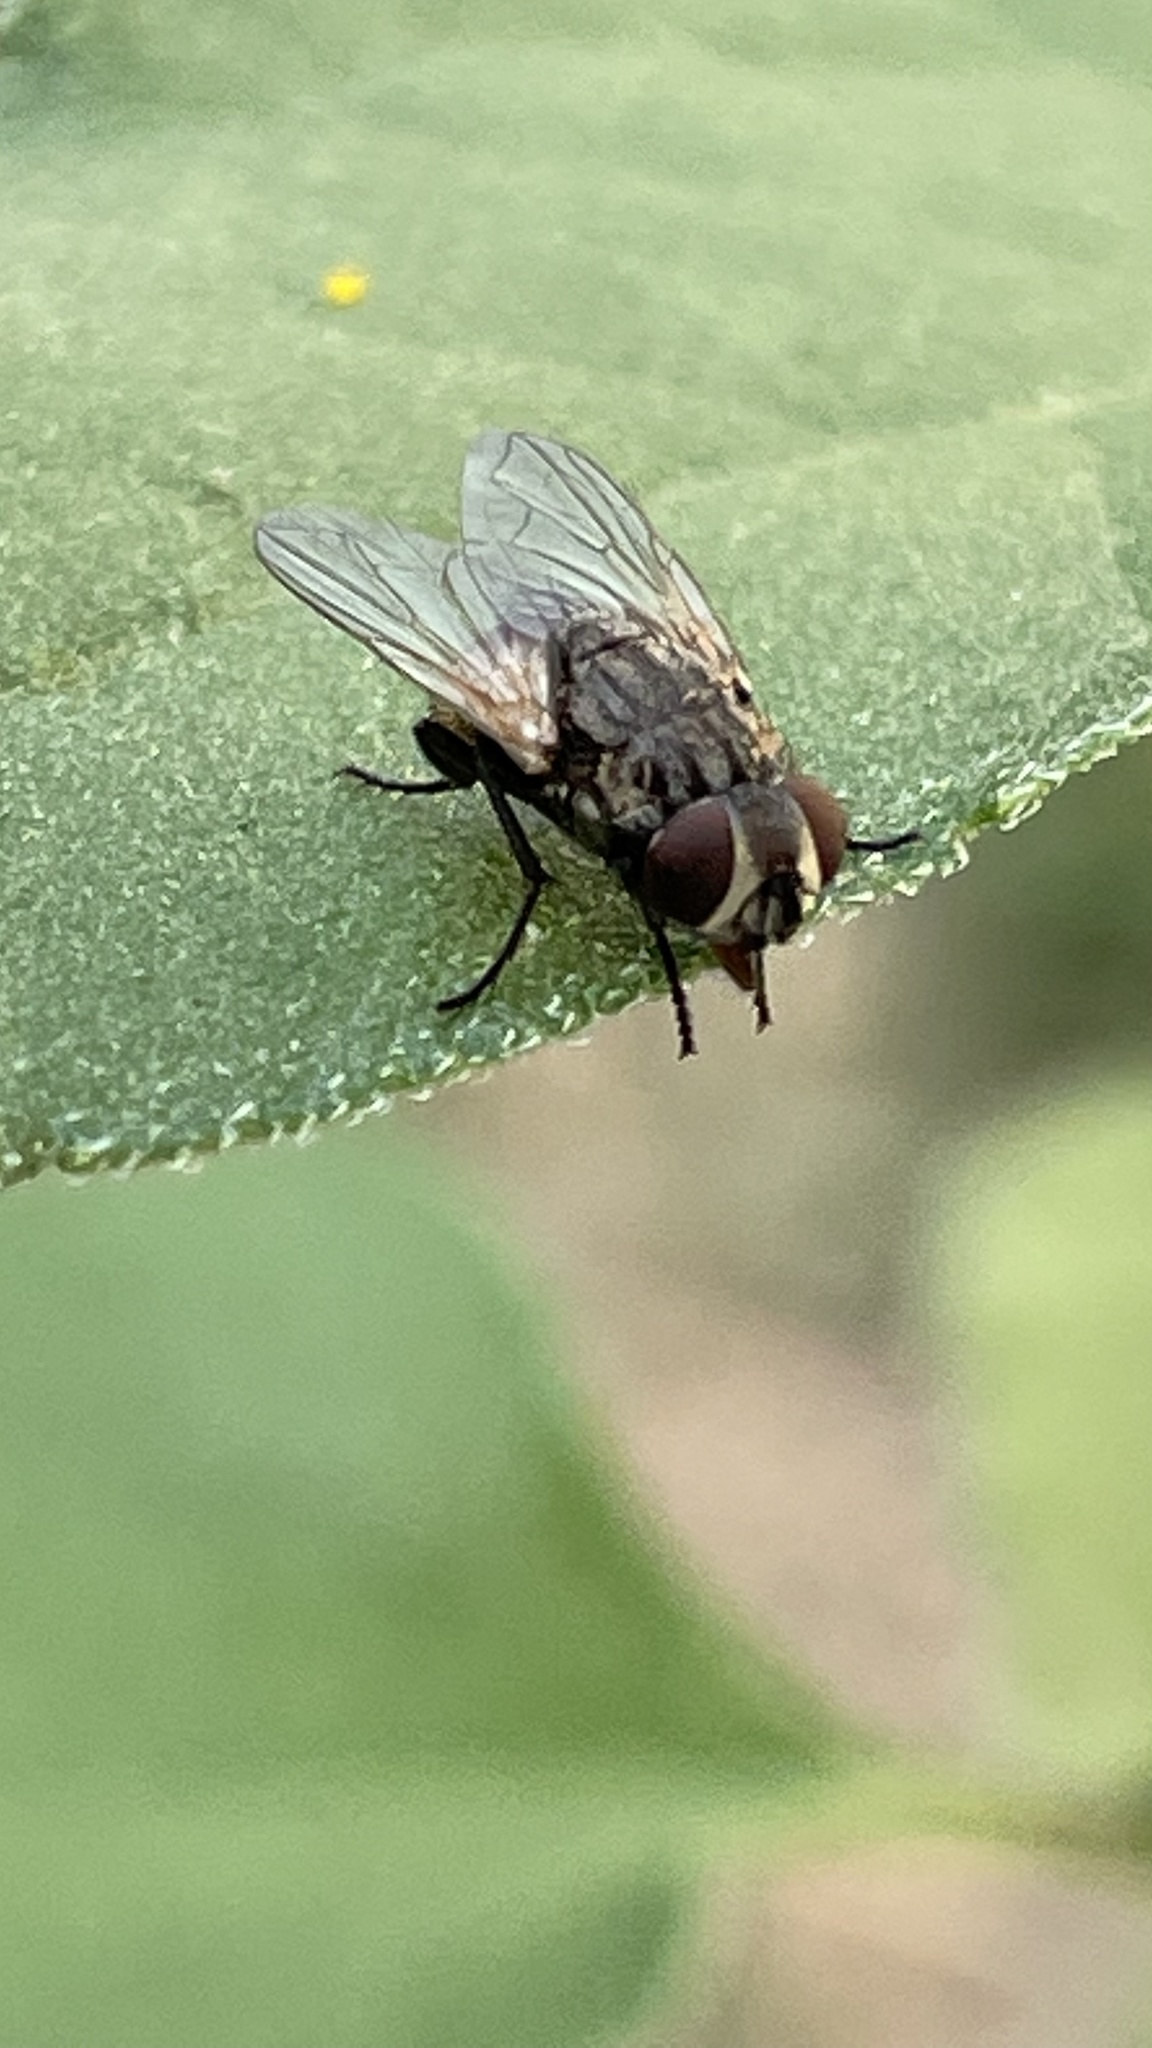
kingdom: Animalia
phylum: Arthropoda
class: Insecta
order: Diptera
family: Muscidae
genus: Musca
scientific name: Musca domestica
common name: House fly
